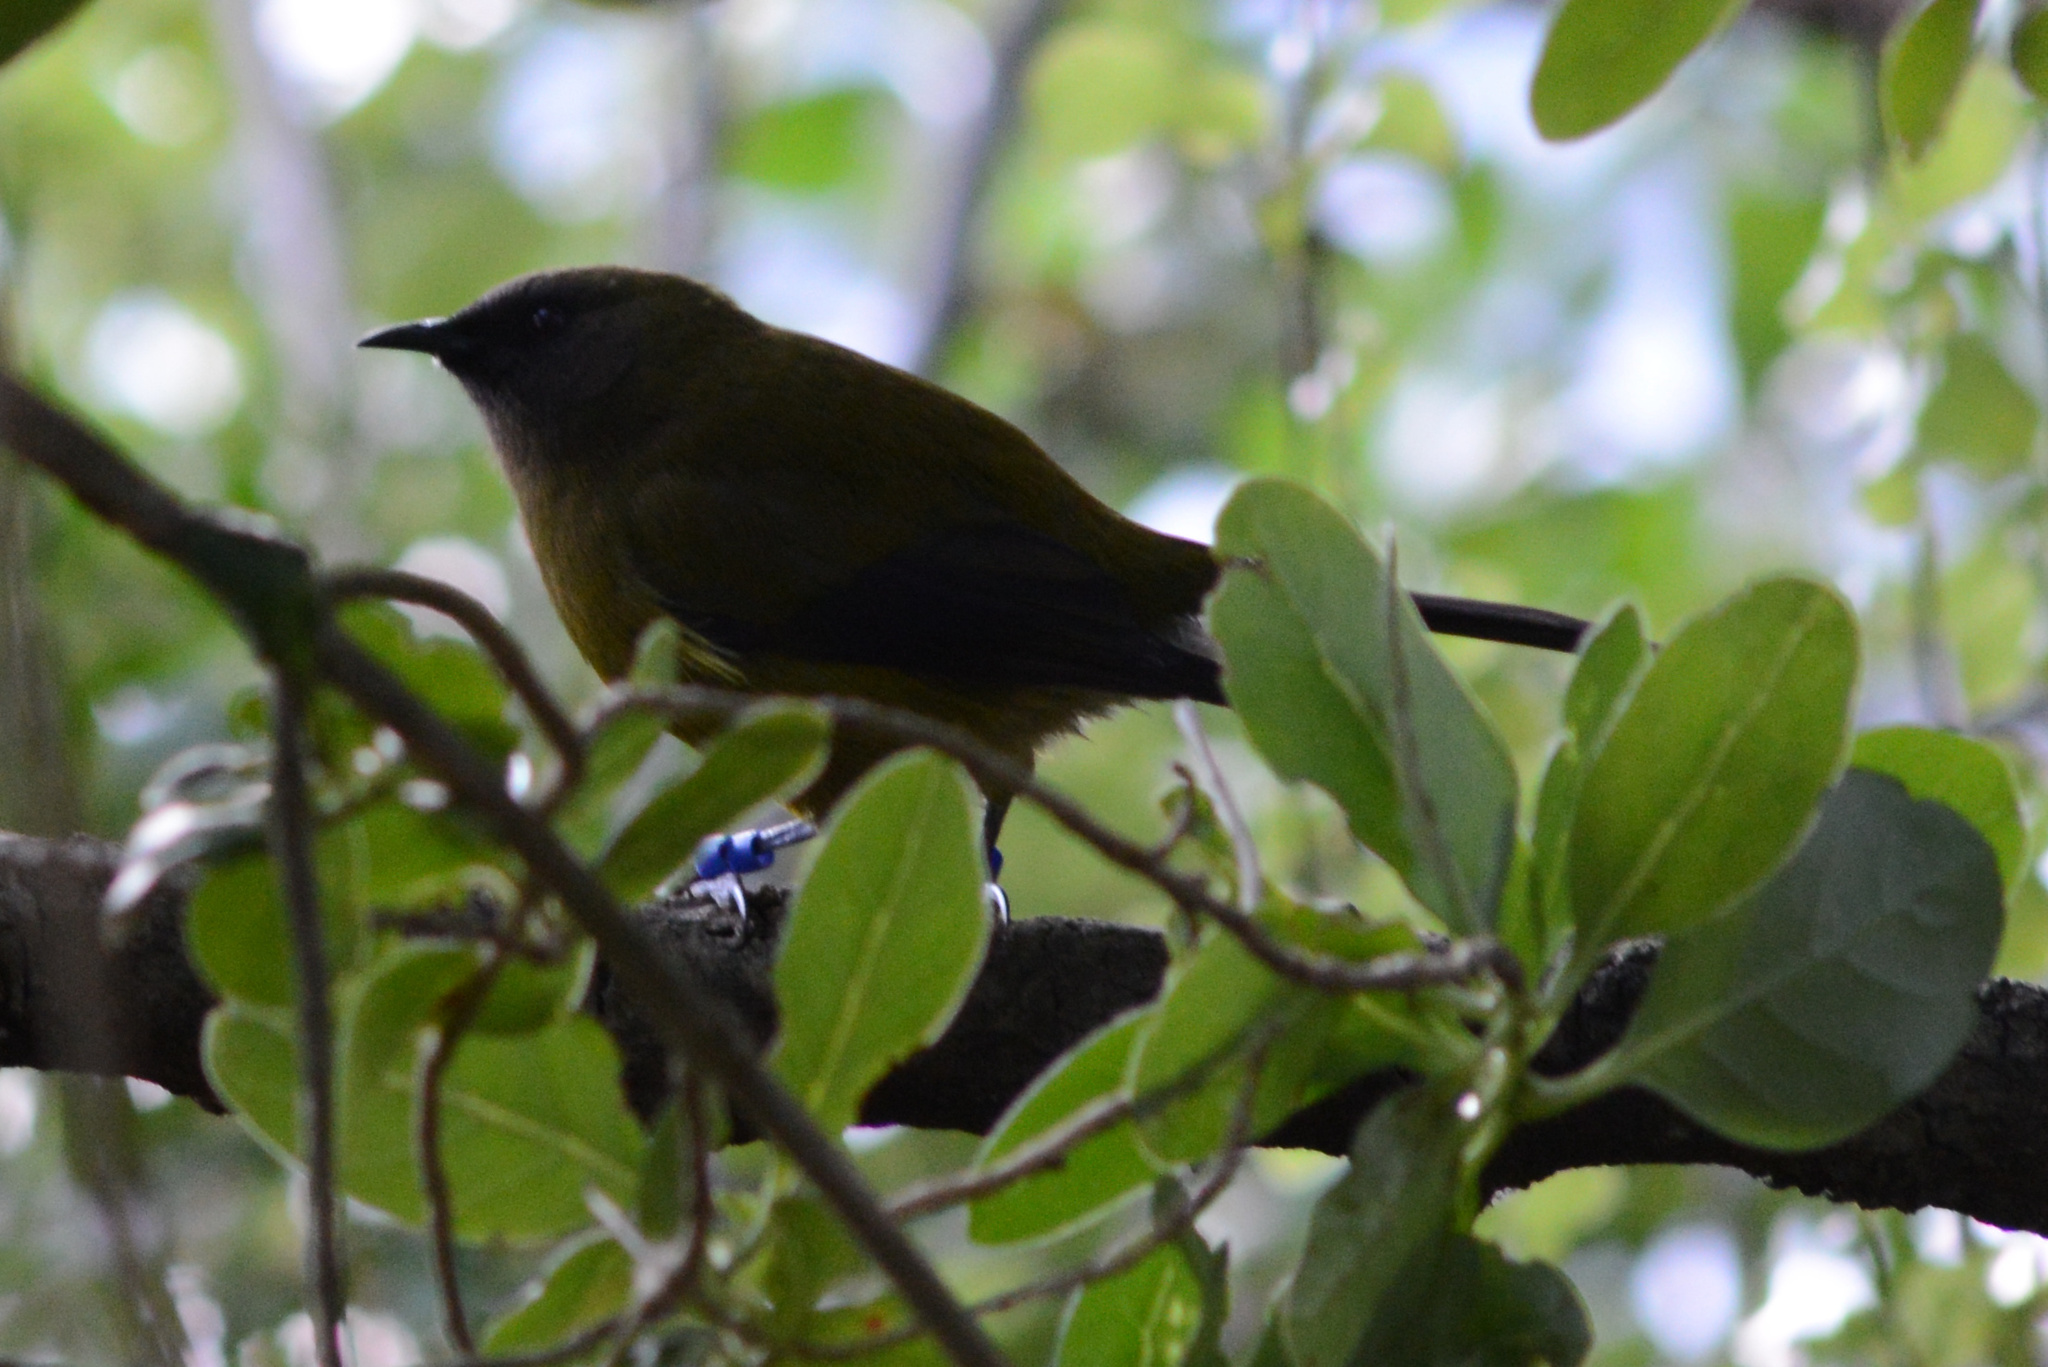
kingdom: Animalia
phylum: Chordata
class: Aves
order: Passeriformes
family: Meliphagidae
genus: Anthornis
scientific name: Anthornis melanura
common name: New zealand bellbird
